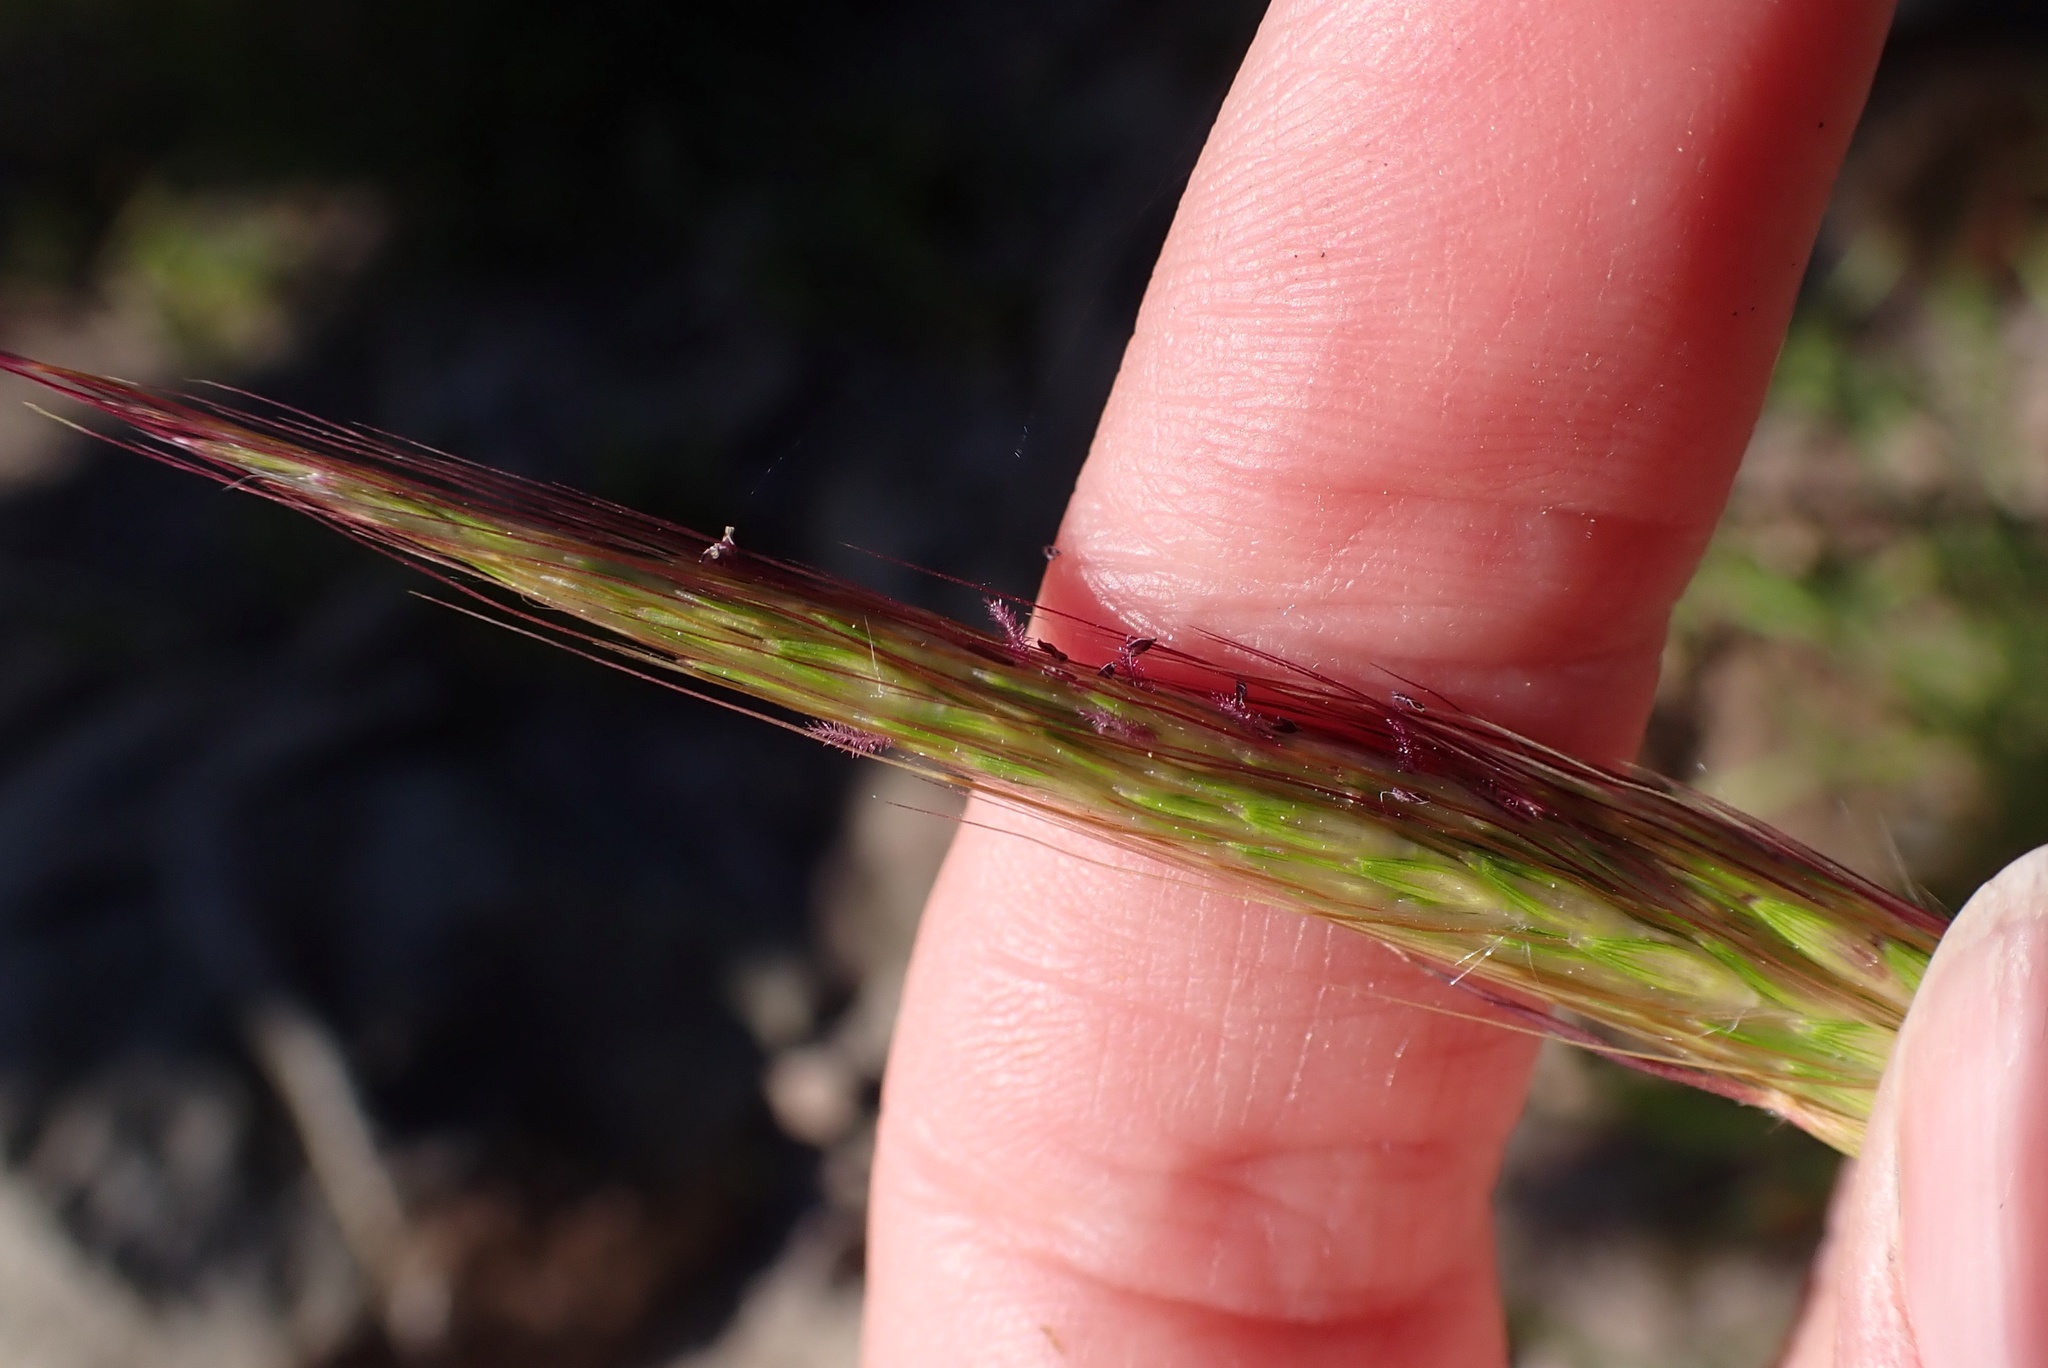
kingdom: Plantae
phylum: Tracheophyta
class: Liliopsida
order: Poales
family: Poaceae
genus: Bothriochloa
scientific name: Bothriochloa barbinodis
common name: Cane bluestem
